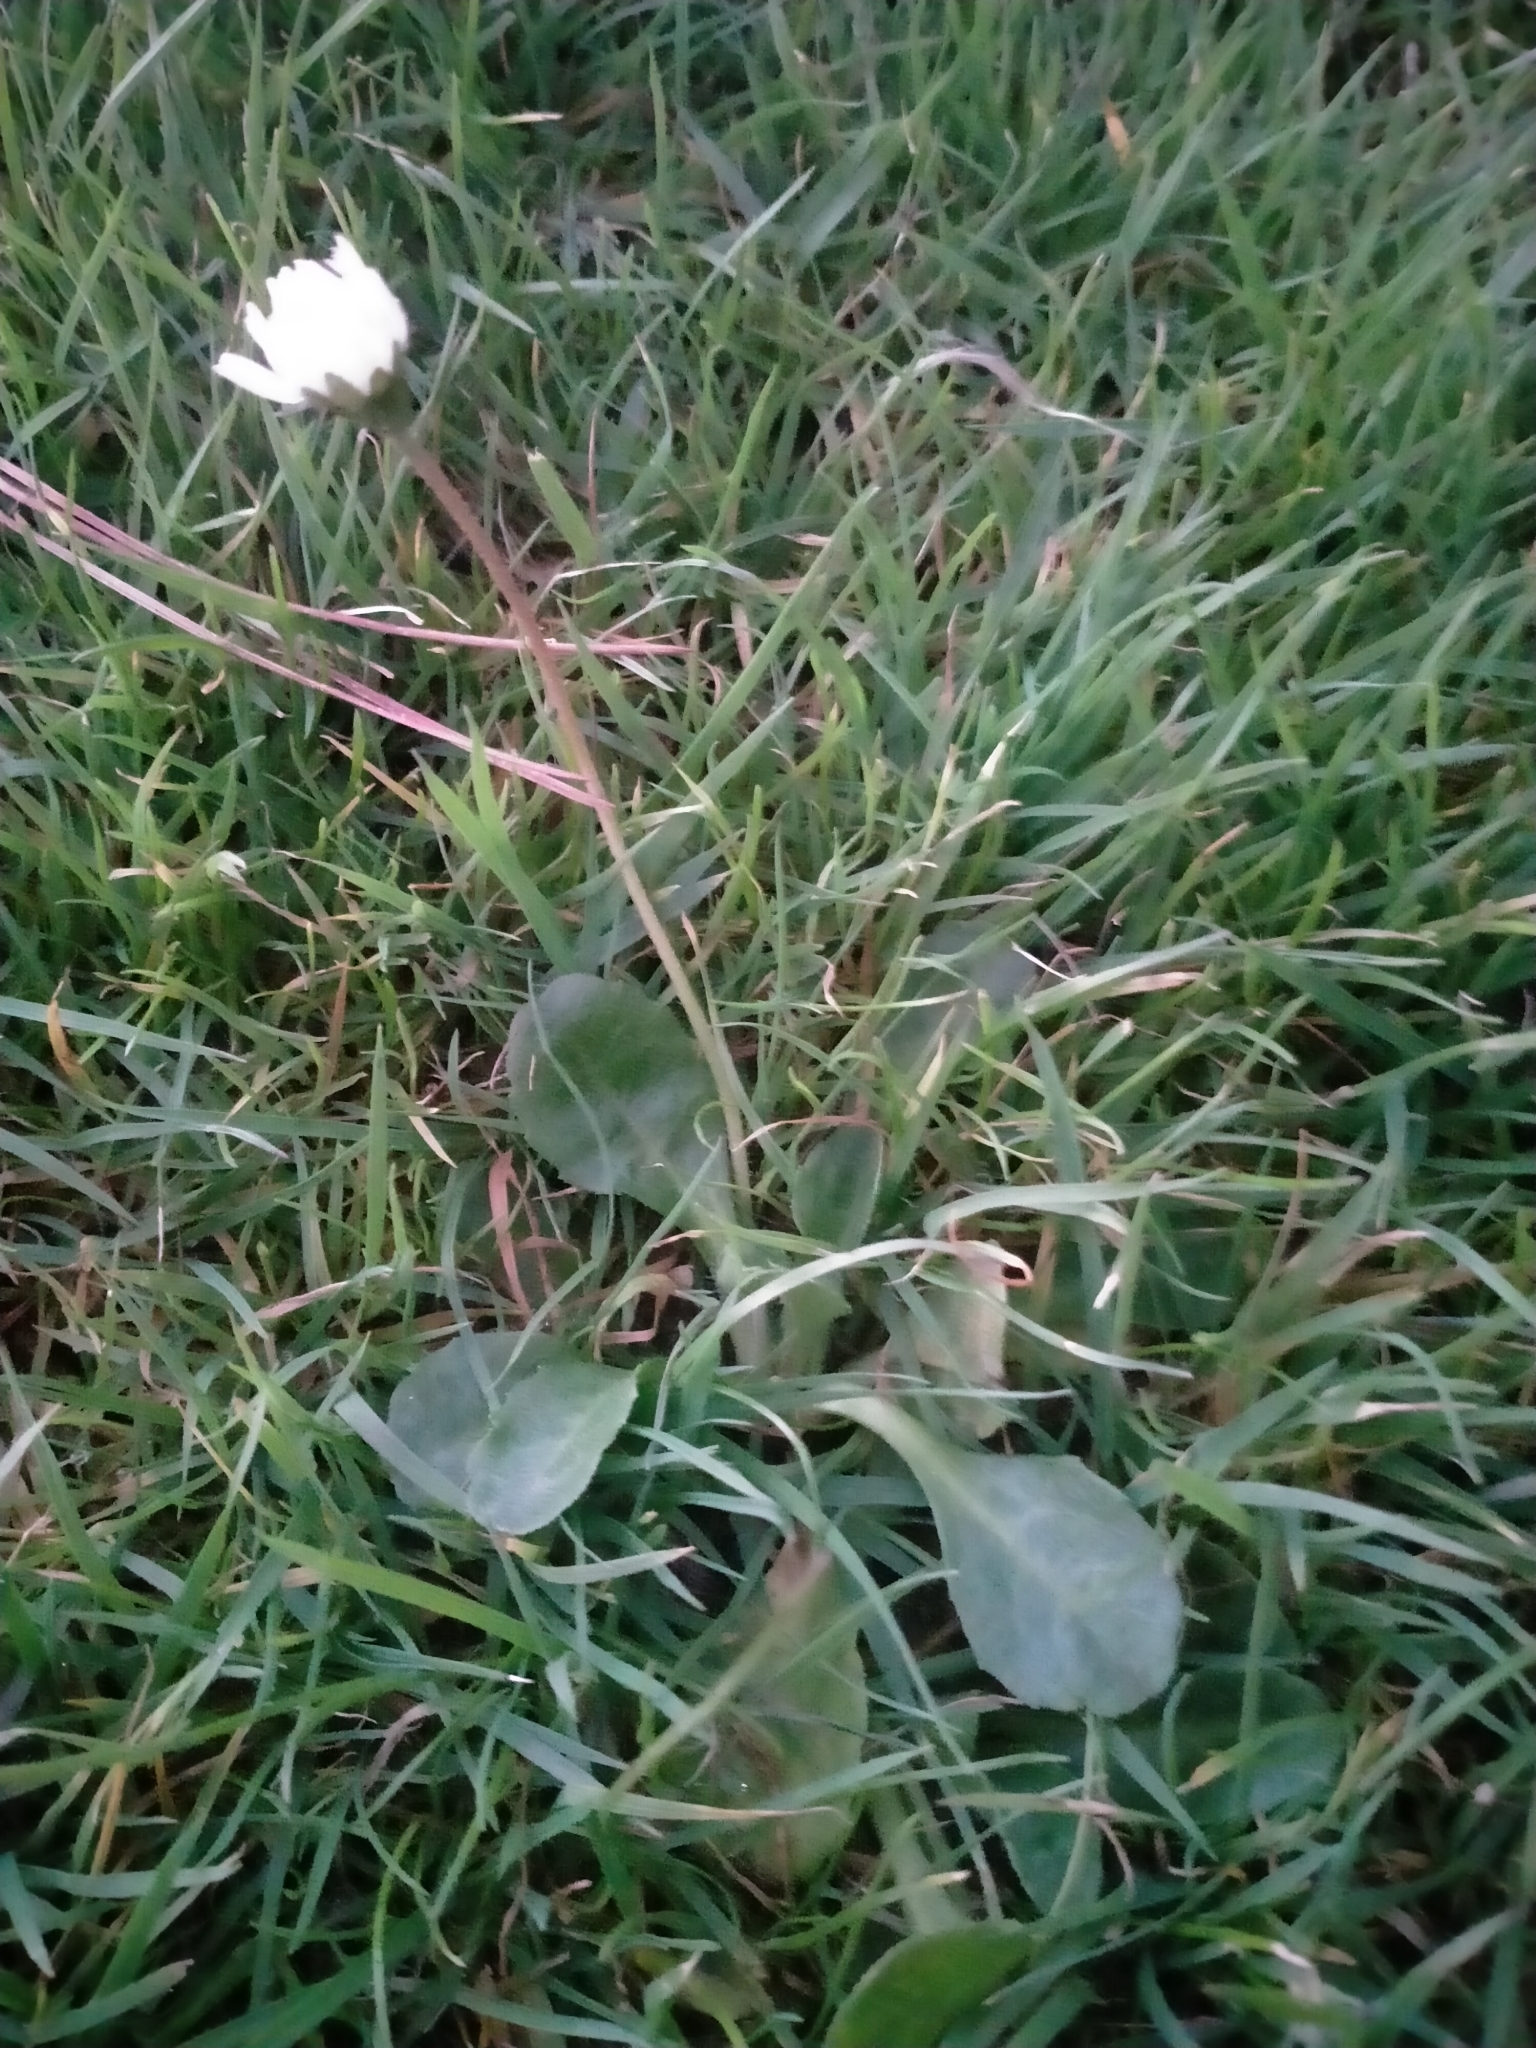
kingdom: Plantae
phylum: Tracheophyta
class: Magnoliopsida
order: Asterales
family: Asteraceae
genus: Bellis
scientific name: Bellis perennis
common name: Lawndaisy
